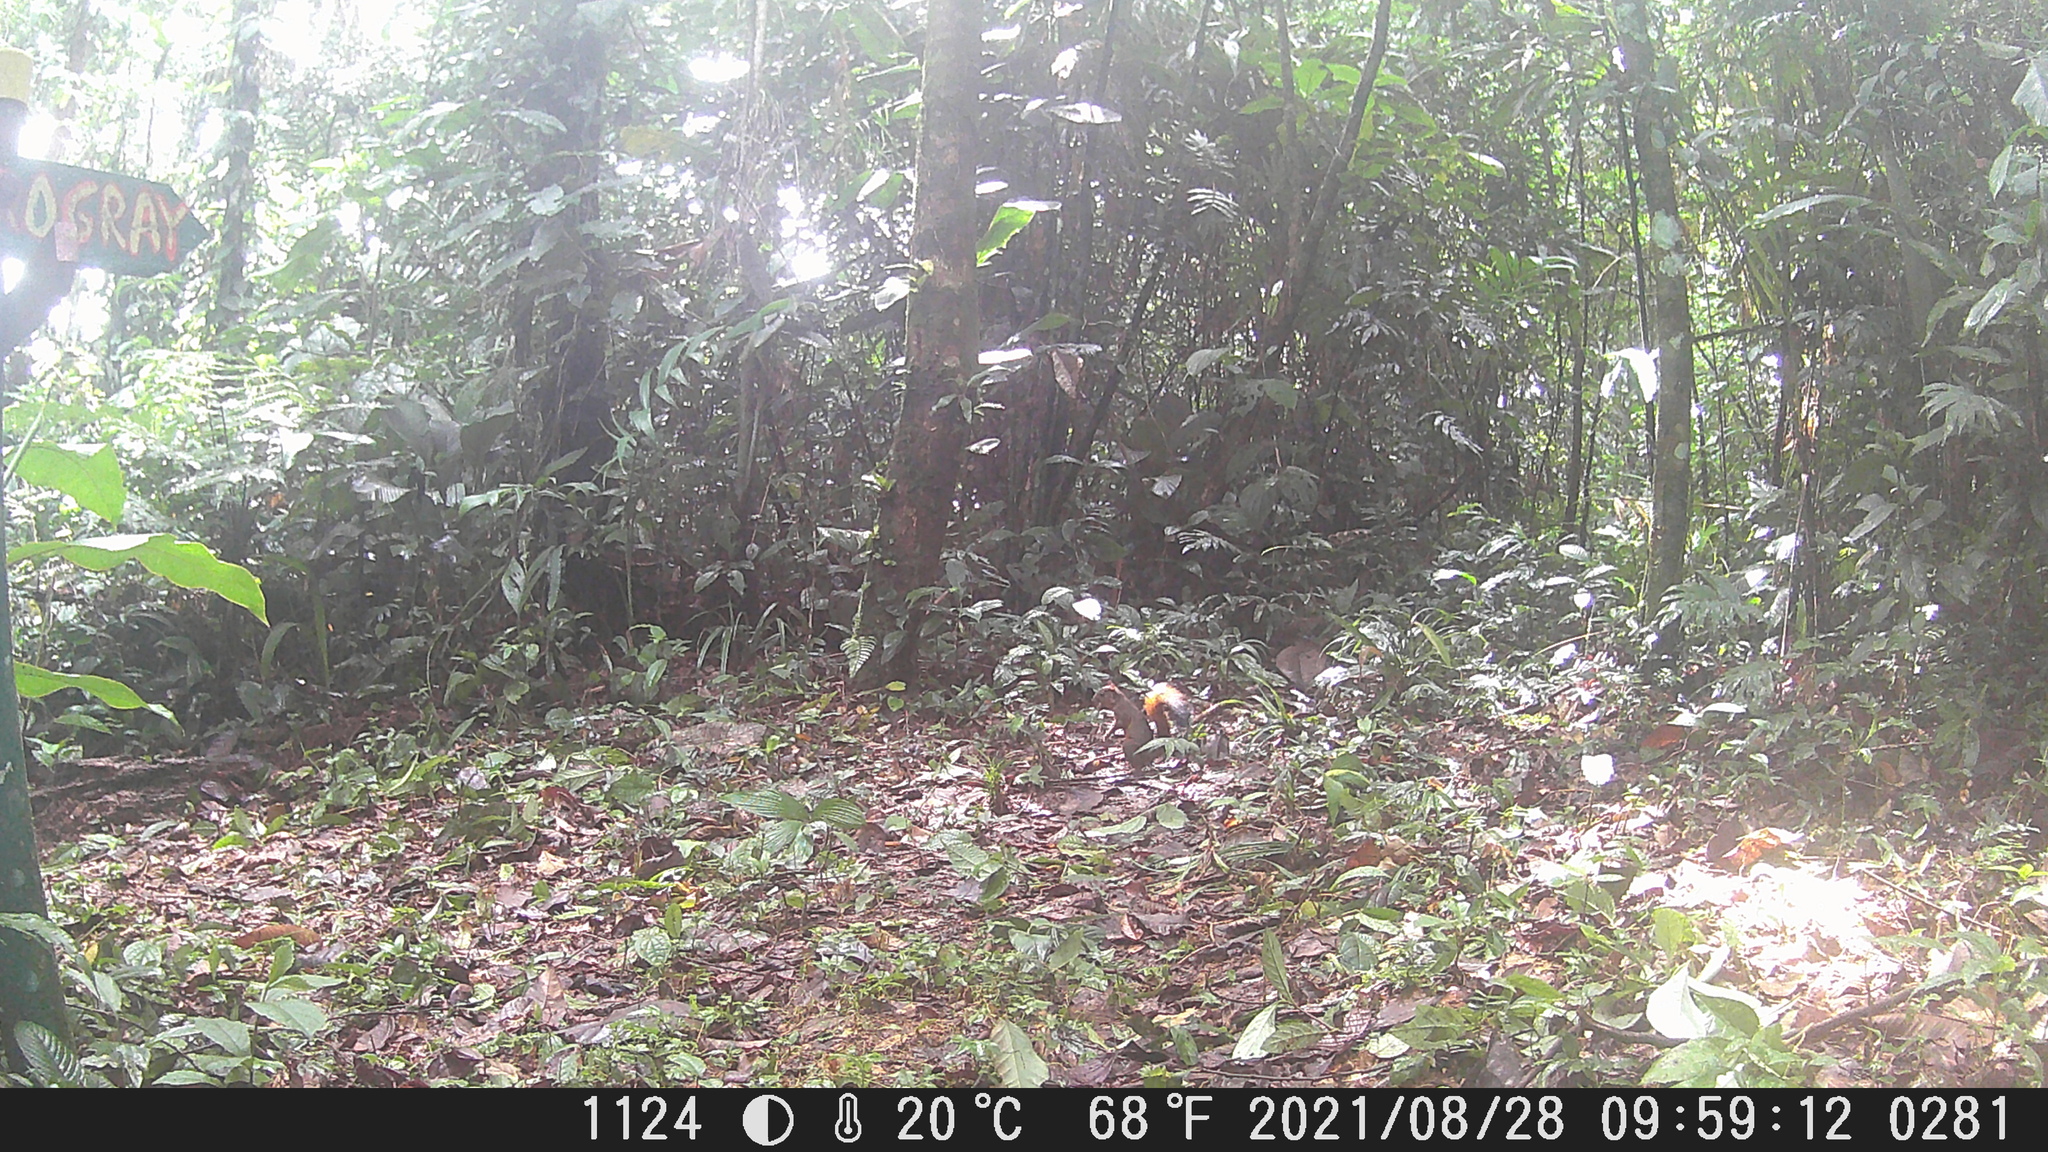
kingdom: Animalia
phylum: Chordata
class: Mammalia
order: Rodentia
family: Sciuridae
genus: Sciurus
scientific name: Sciurus granatensis
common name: Red-tailed squirrel
